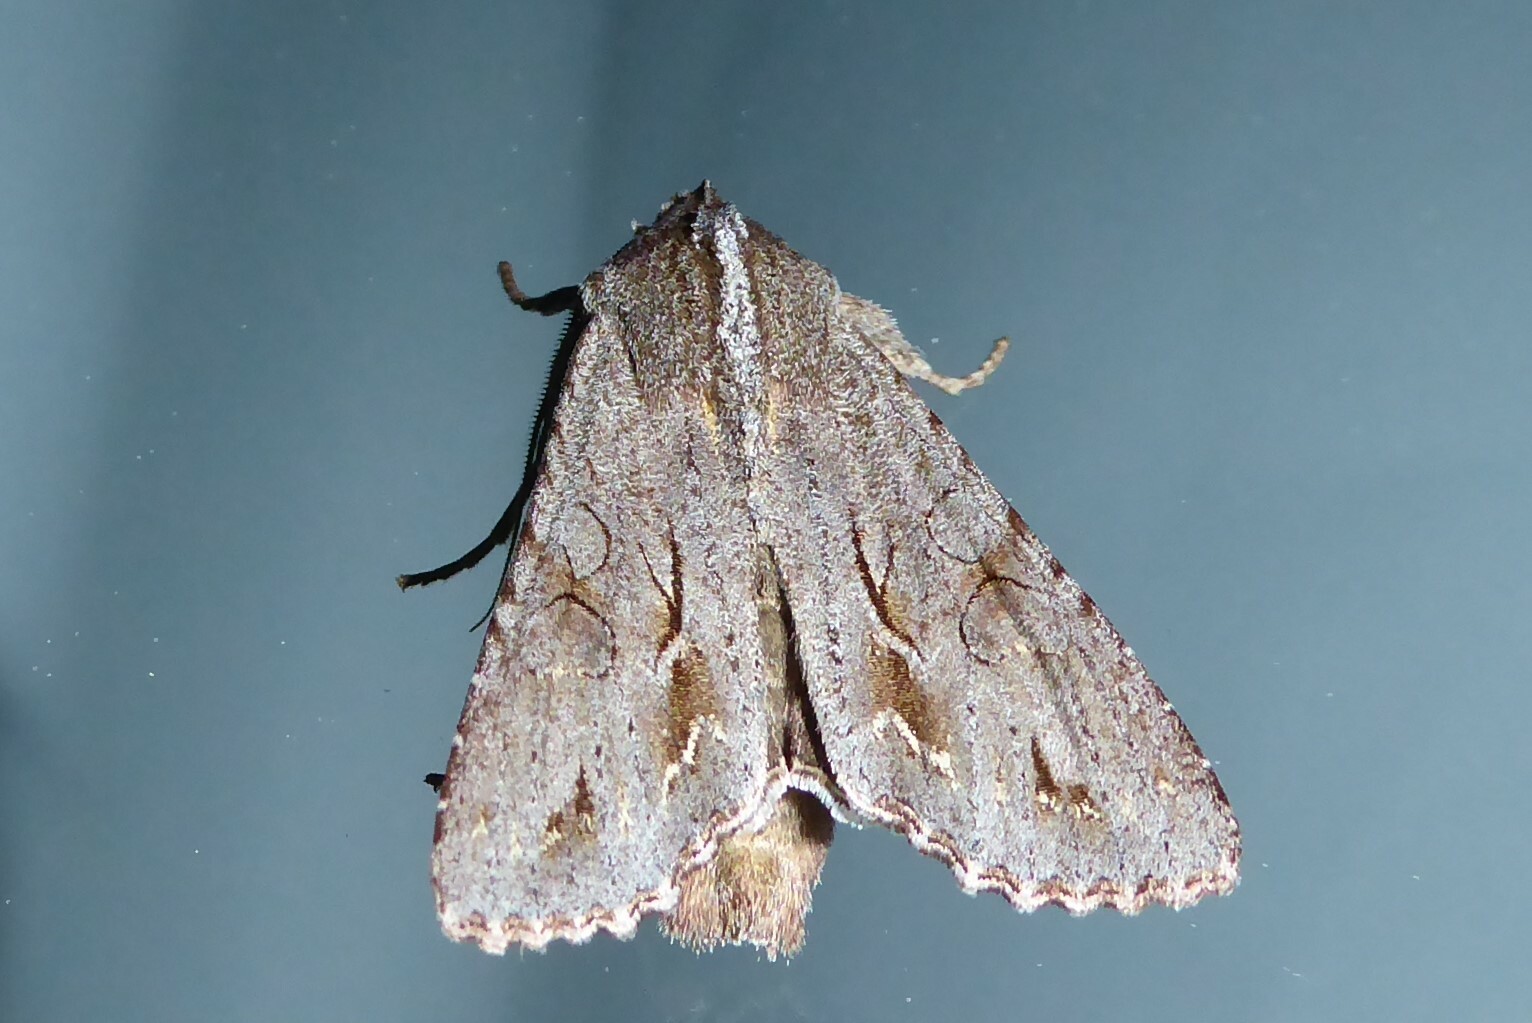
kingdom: Animalia
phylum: Arthropoda
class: Insecta
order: Lepidoptera
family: Noctuidae
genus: Ichneutica
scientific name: Ichneutica
